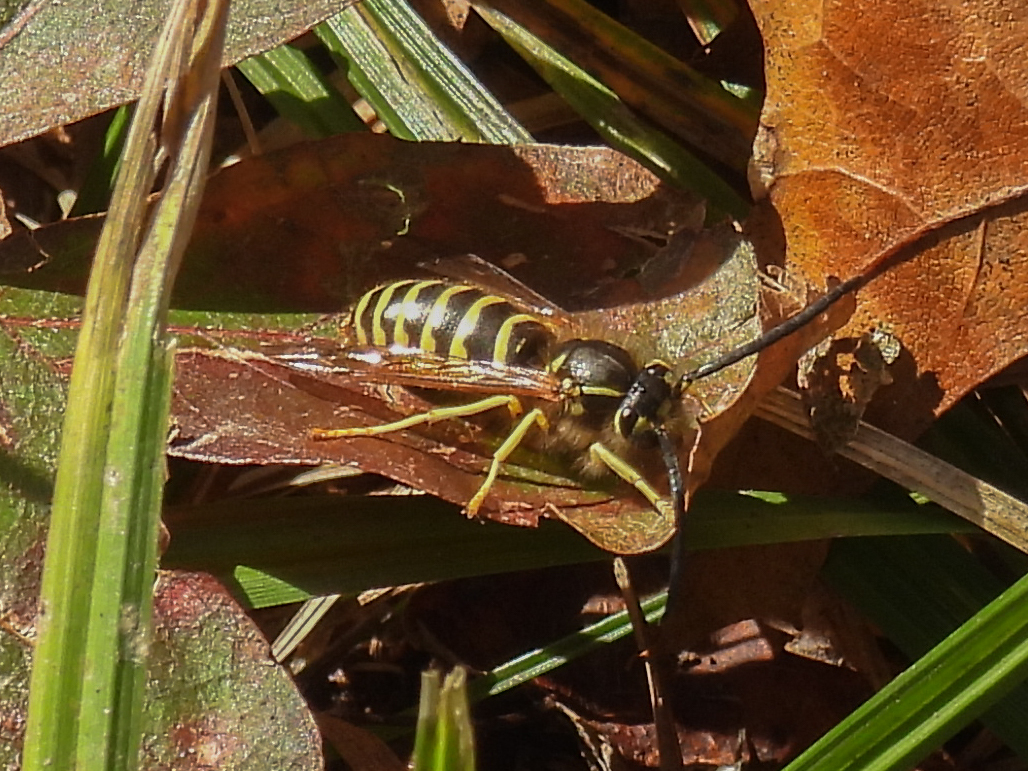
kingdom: Animalia
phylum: Arthropoda
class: Insecta
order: Hymenoptera
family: Vespidae
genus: Vespula
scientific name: Vespula maculifrons
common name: Eastern yellowjacket
